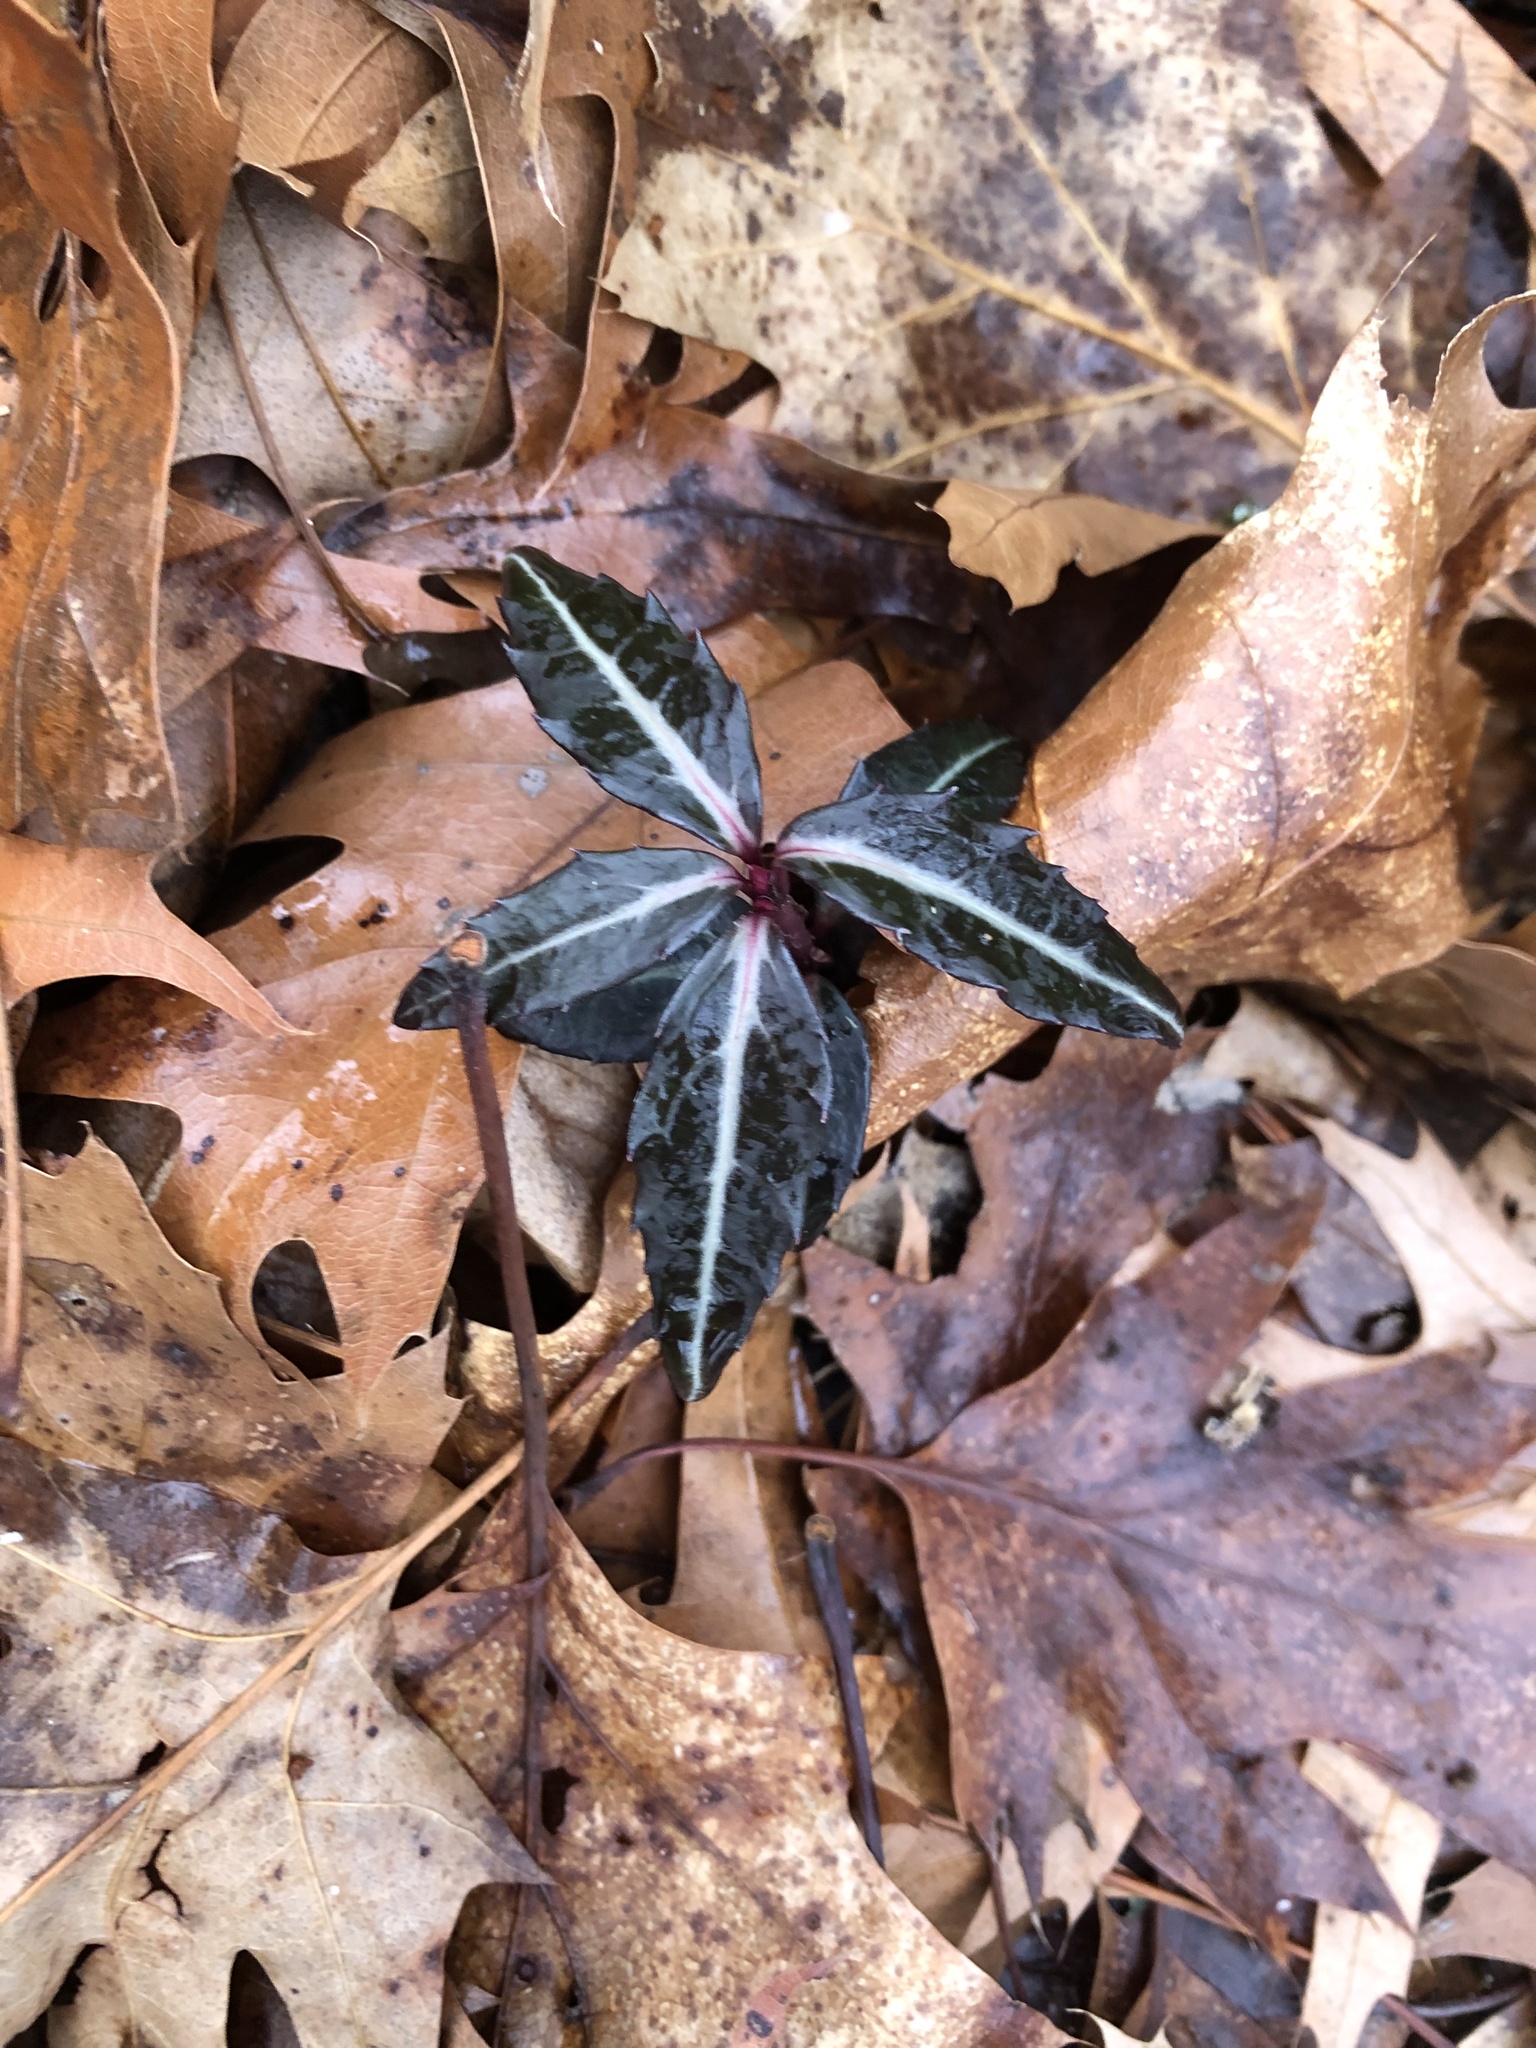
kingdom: Plantae
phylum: Tracheophyta
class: Magnoliopsida
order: Ericales
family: Ericaceae
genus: Chimaphila
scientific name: Chimaphila maculata
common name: Spotted pipsissewa
